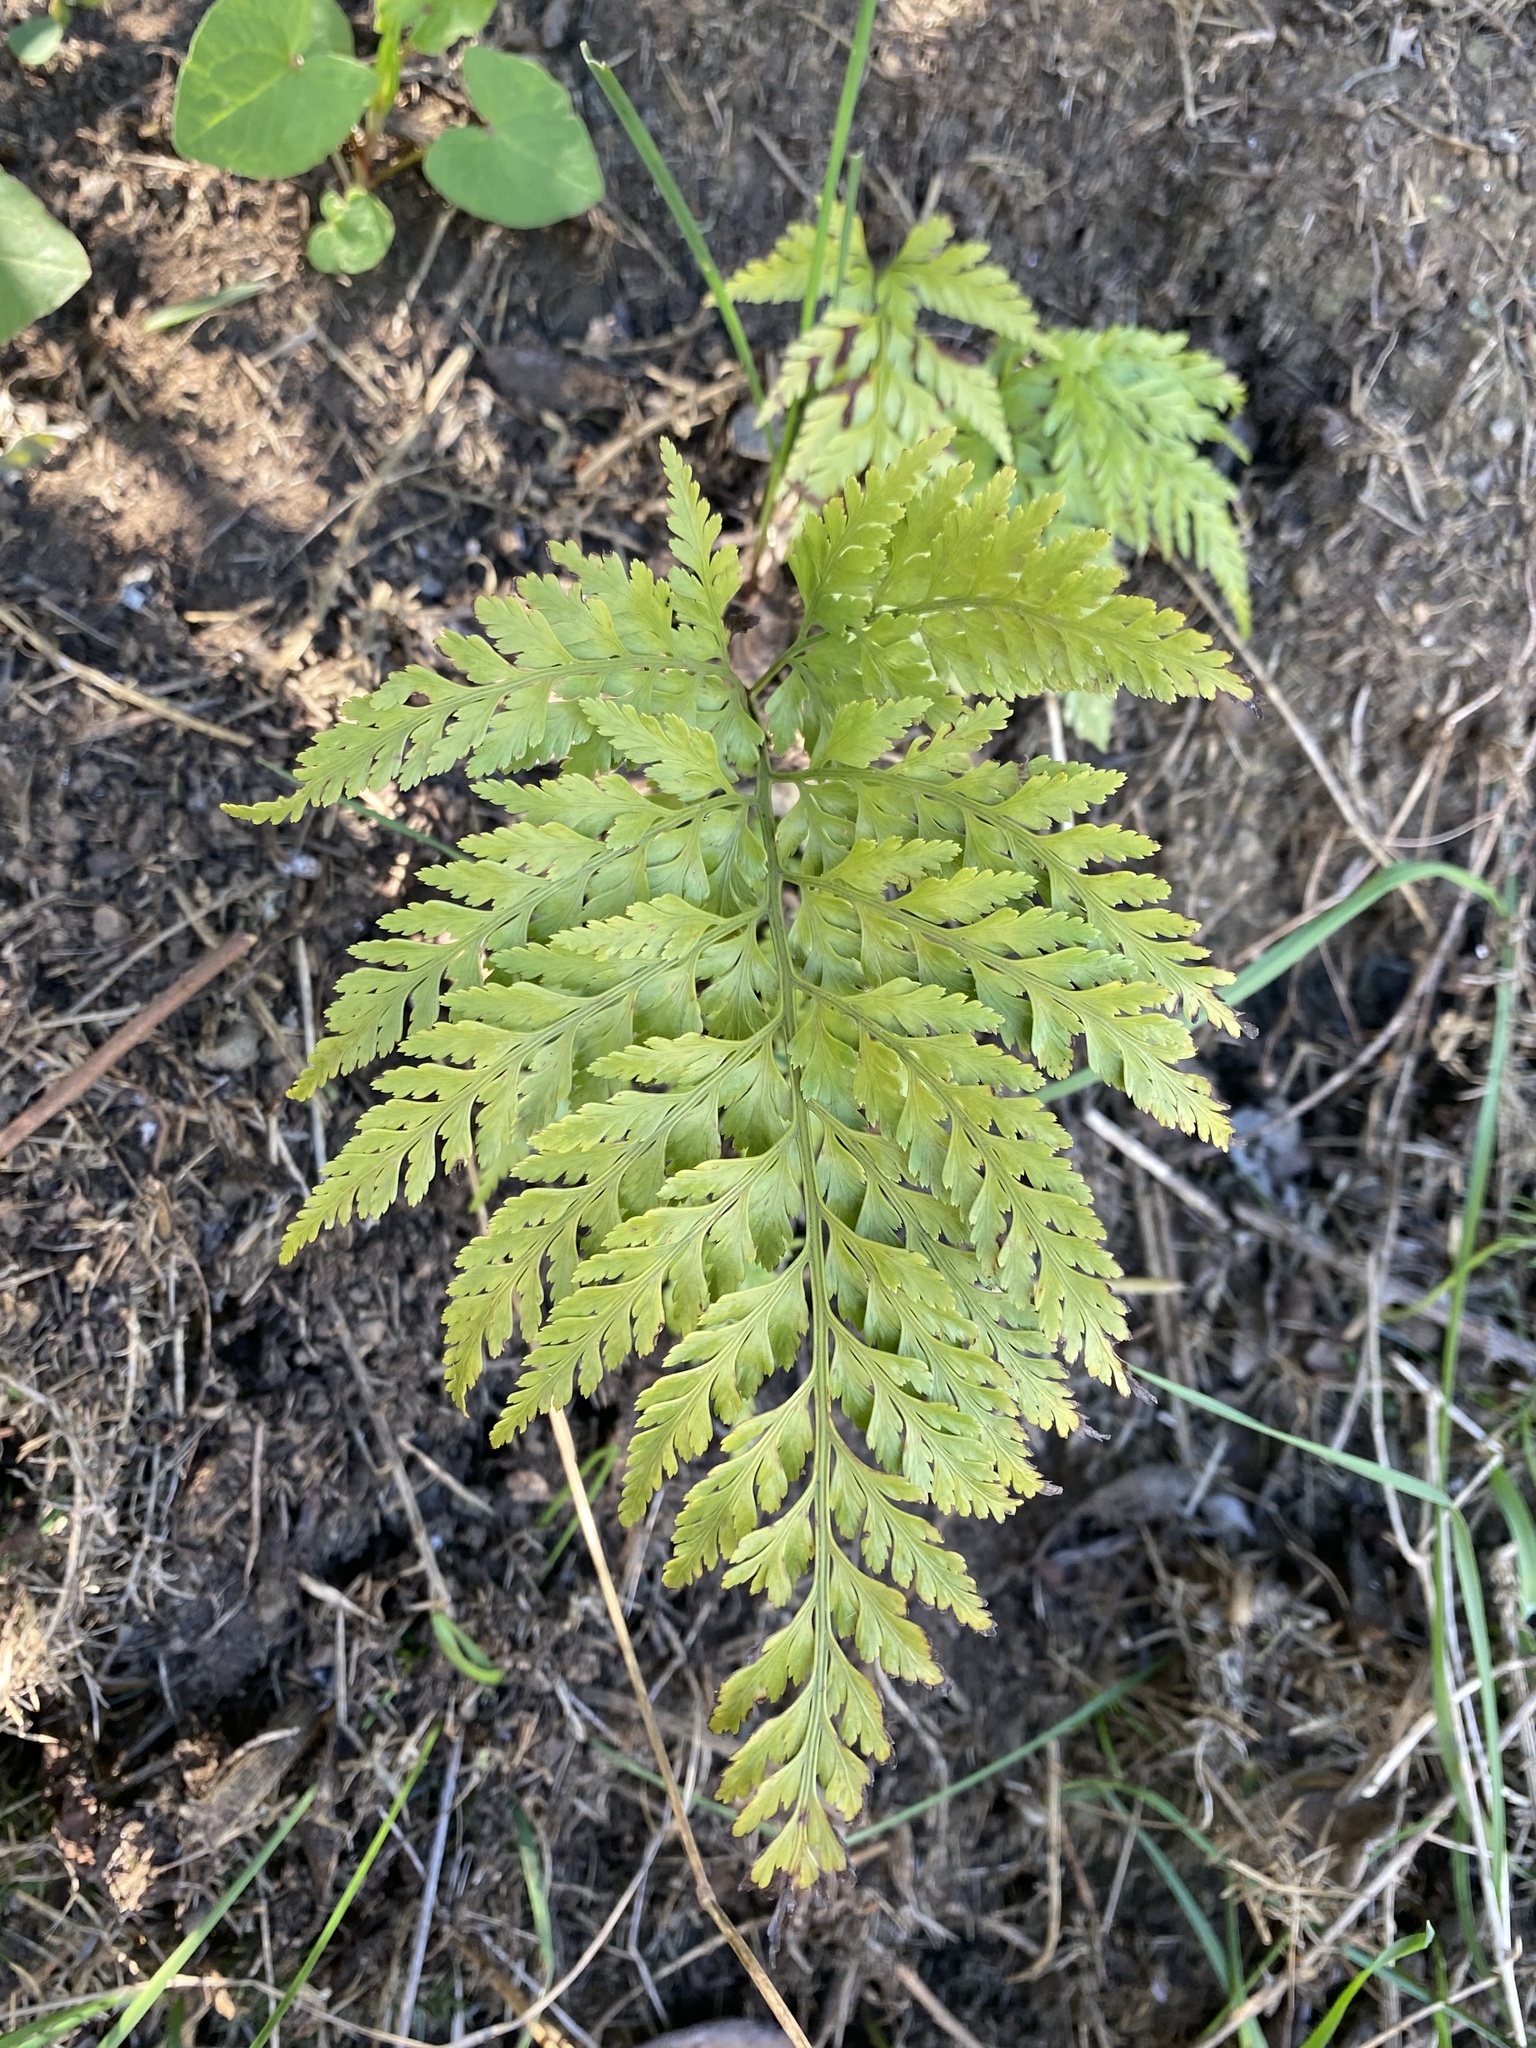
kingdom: Plantae
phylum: Tracheophyta
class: Polypodiopsida
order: Polypodiales
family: Aspleniaceae
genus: Asplenium
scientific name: Asplenium onopteris
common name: Irish spleenwort
